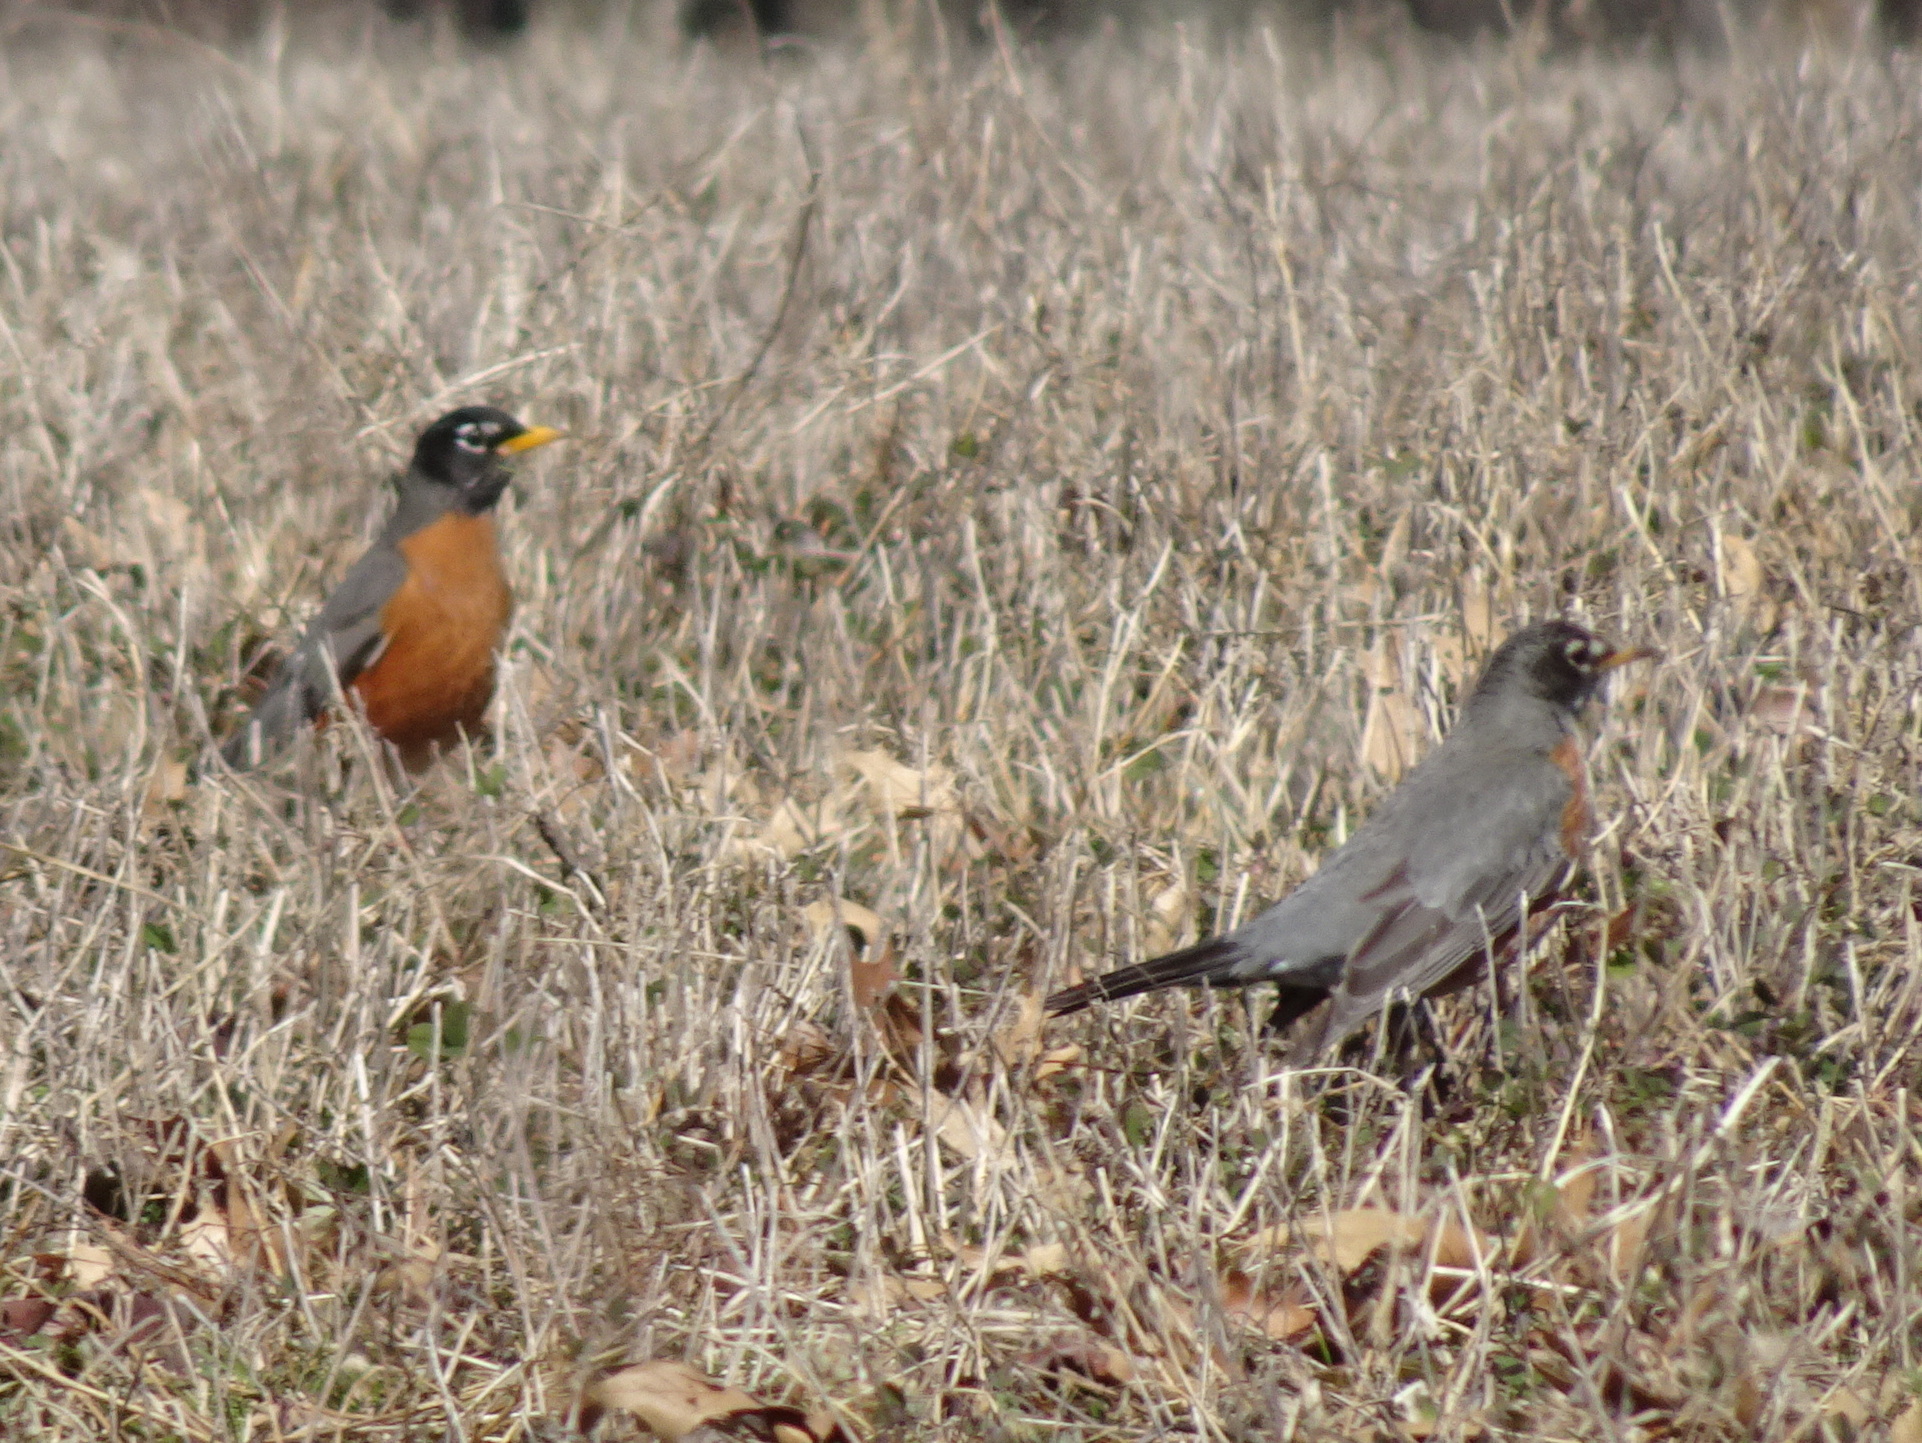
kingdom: Animalia
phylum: Chordata
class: Aves
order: Passeriformes
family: Turdidae
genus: Turdus
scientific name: Turdus migratorius
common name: American robin
